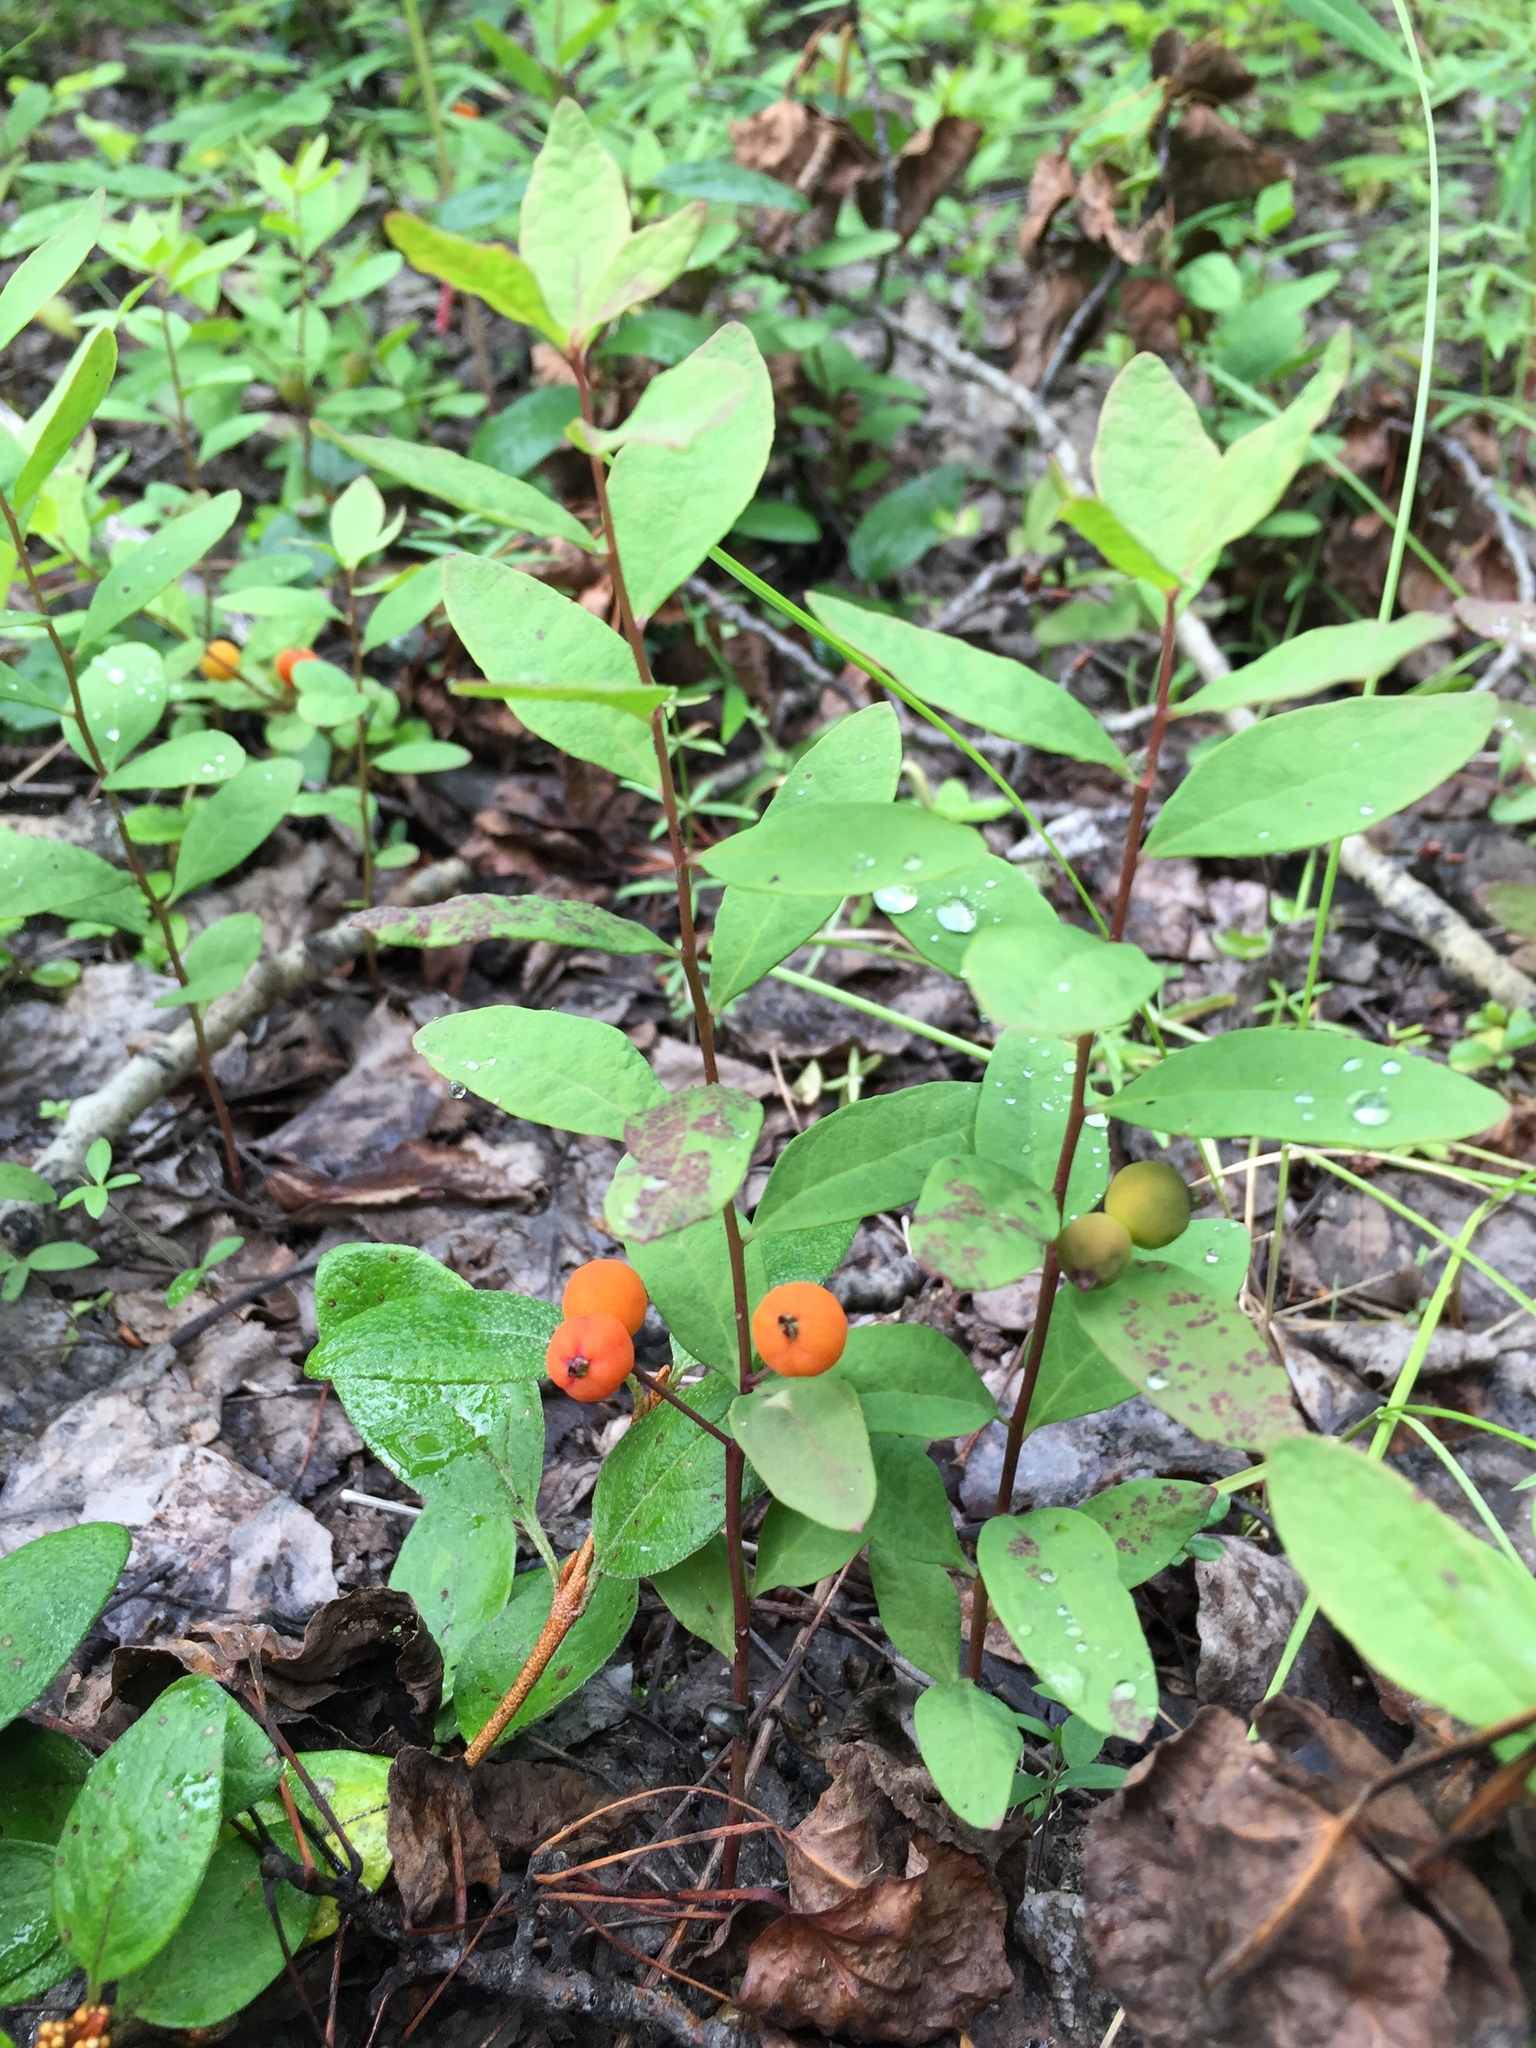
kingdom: Plantae
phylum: Tracheophyta
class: Magnoliopsida
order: Santalales
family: Comandraceae
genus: Geocaulon
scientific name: Geocaulon lividum
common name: Earthberry
